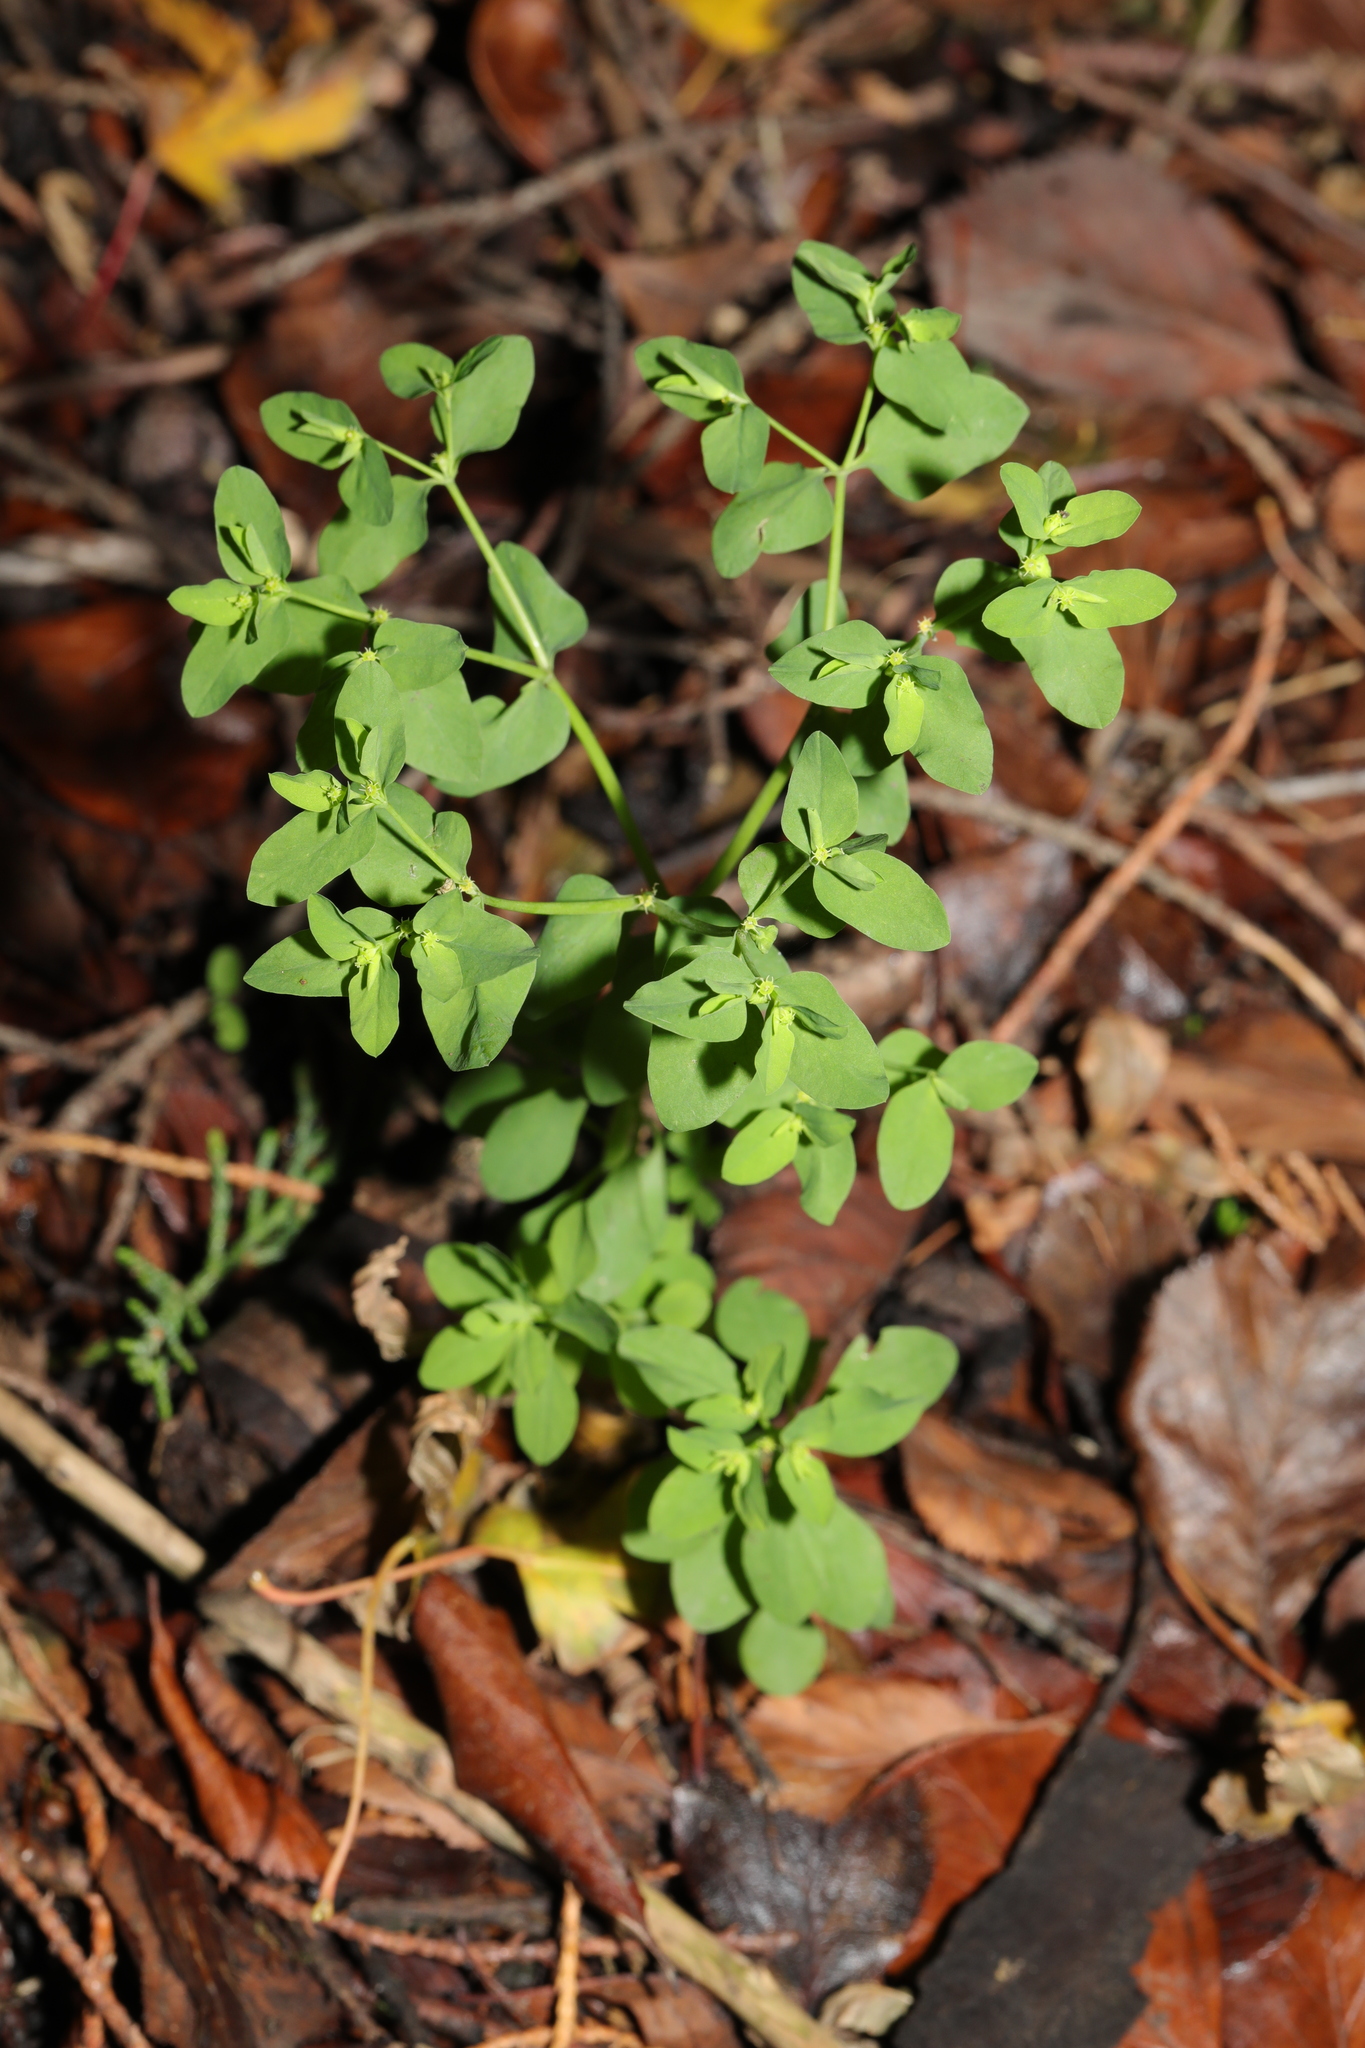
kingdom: Plantae
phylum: Tracheophyta
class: Magnoliopsida
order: Malpighiales
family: Euphorbiaceae
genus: Euphorbia
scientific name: Euphorbia peplus
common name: Petty spurge
